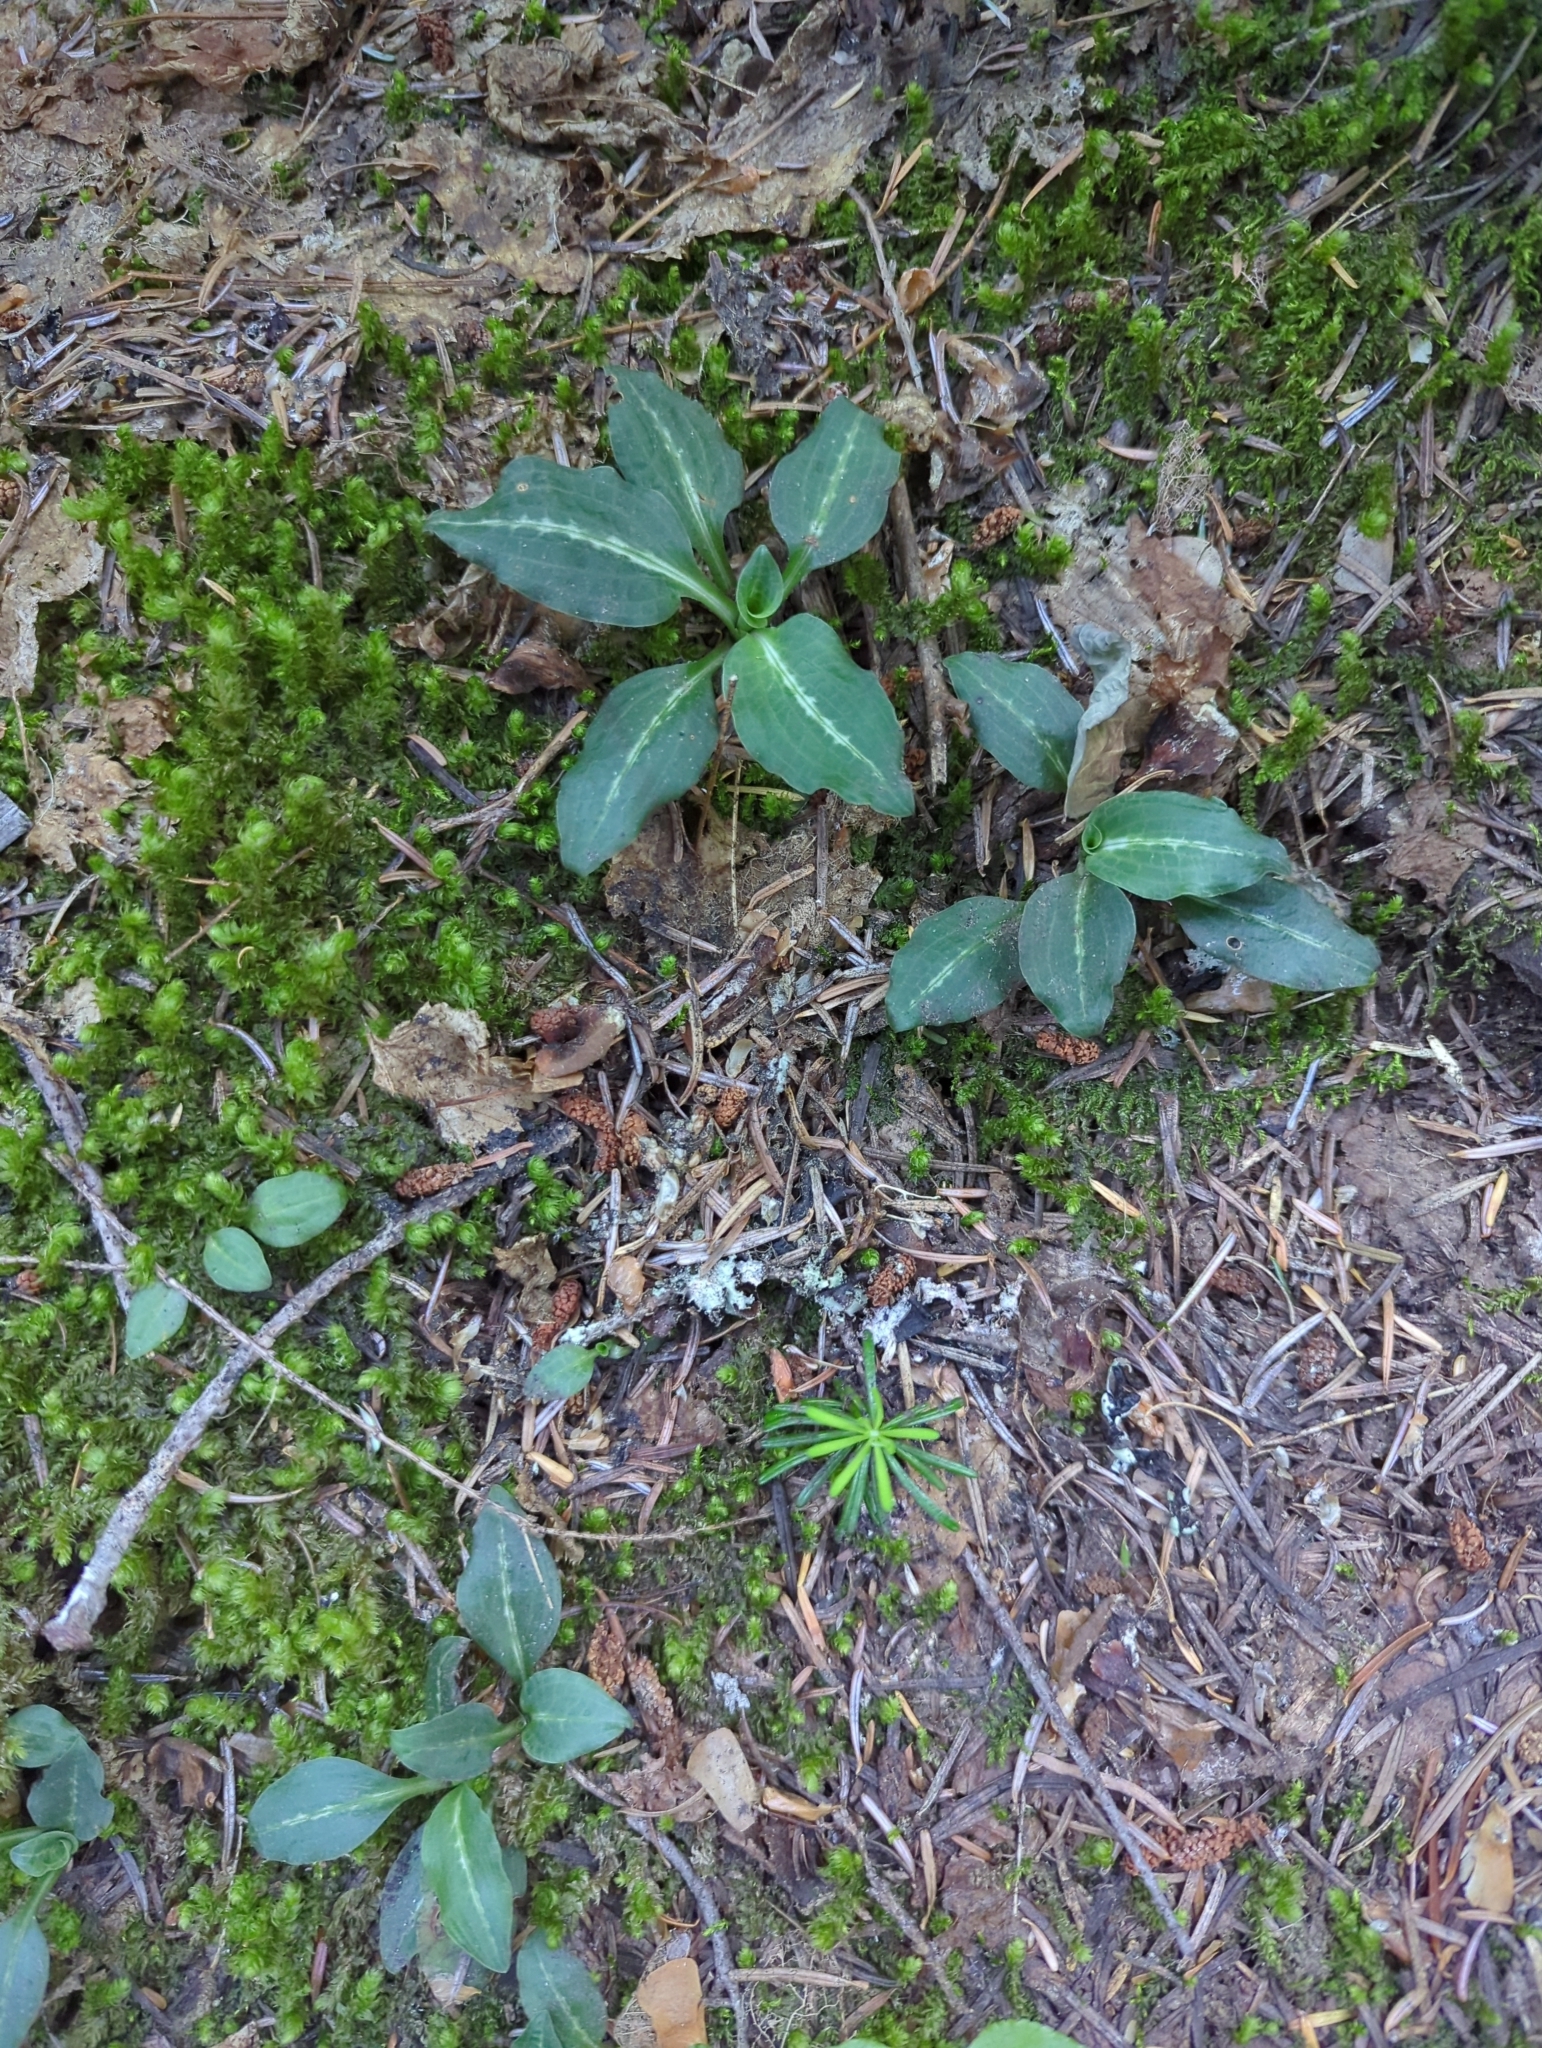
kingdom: Plantae
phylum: Tracheophyta
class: Liliopsida
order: Asparagales
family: Orchidaceae
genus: Goodyera
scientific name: Goodyera oblongifolia
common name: Giant rattlesnake-plantain
